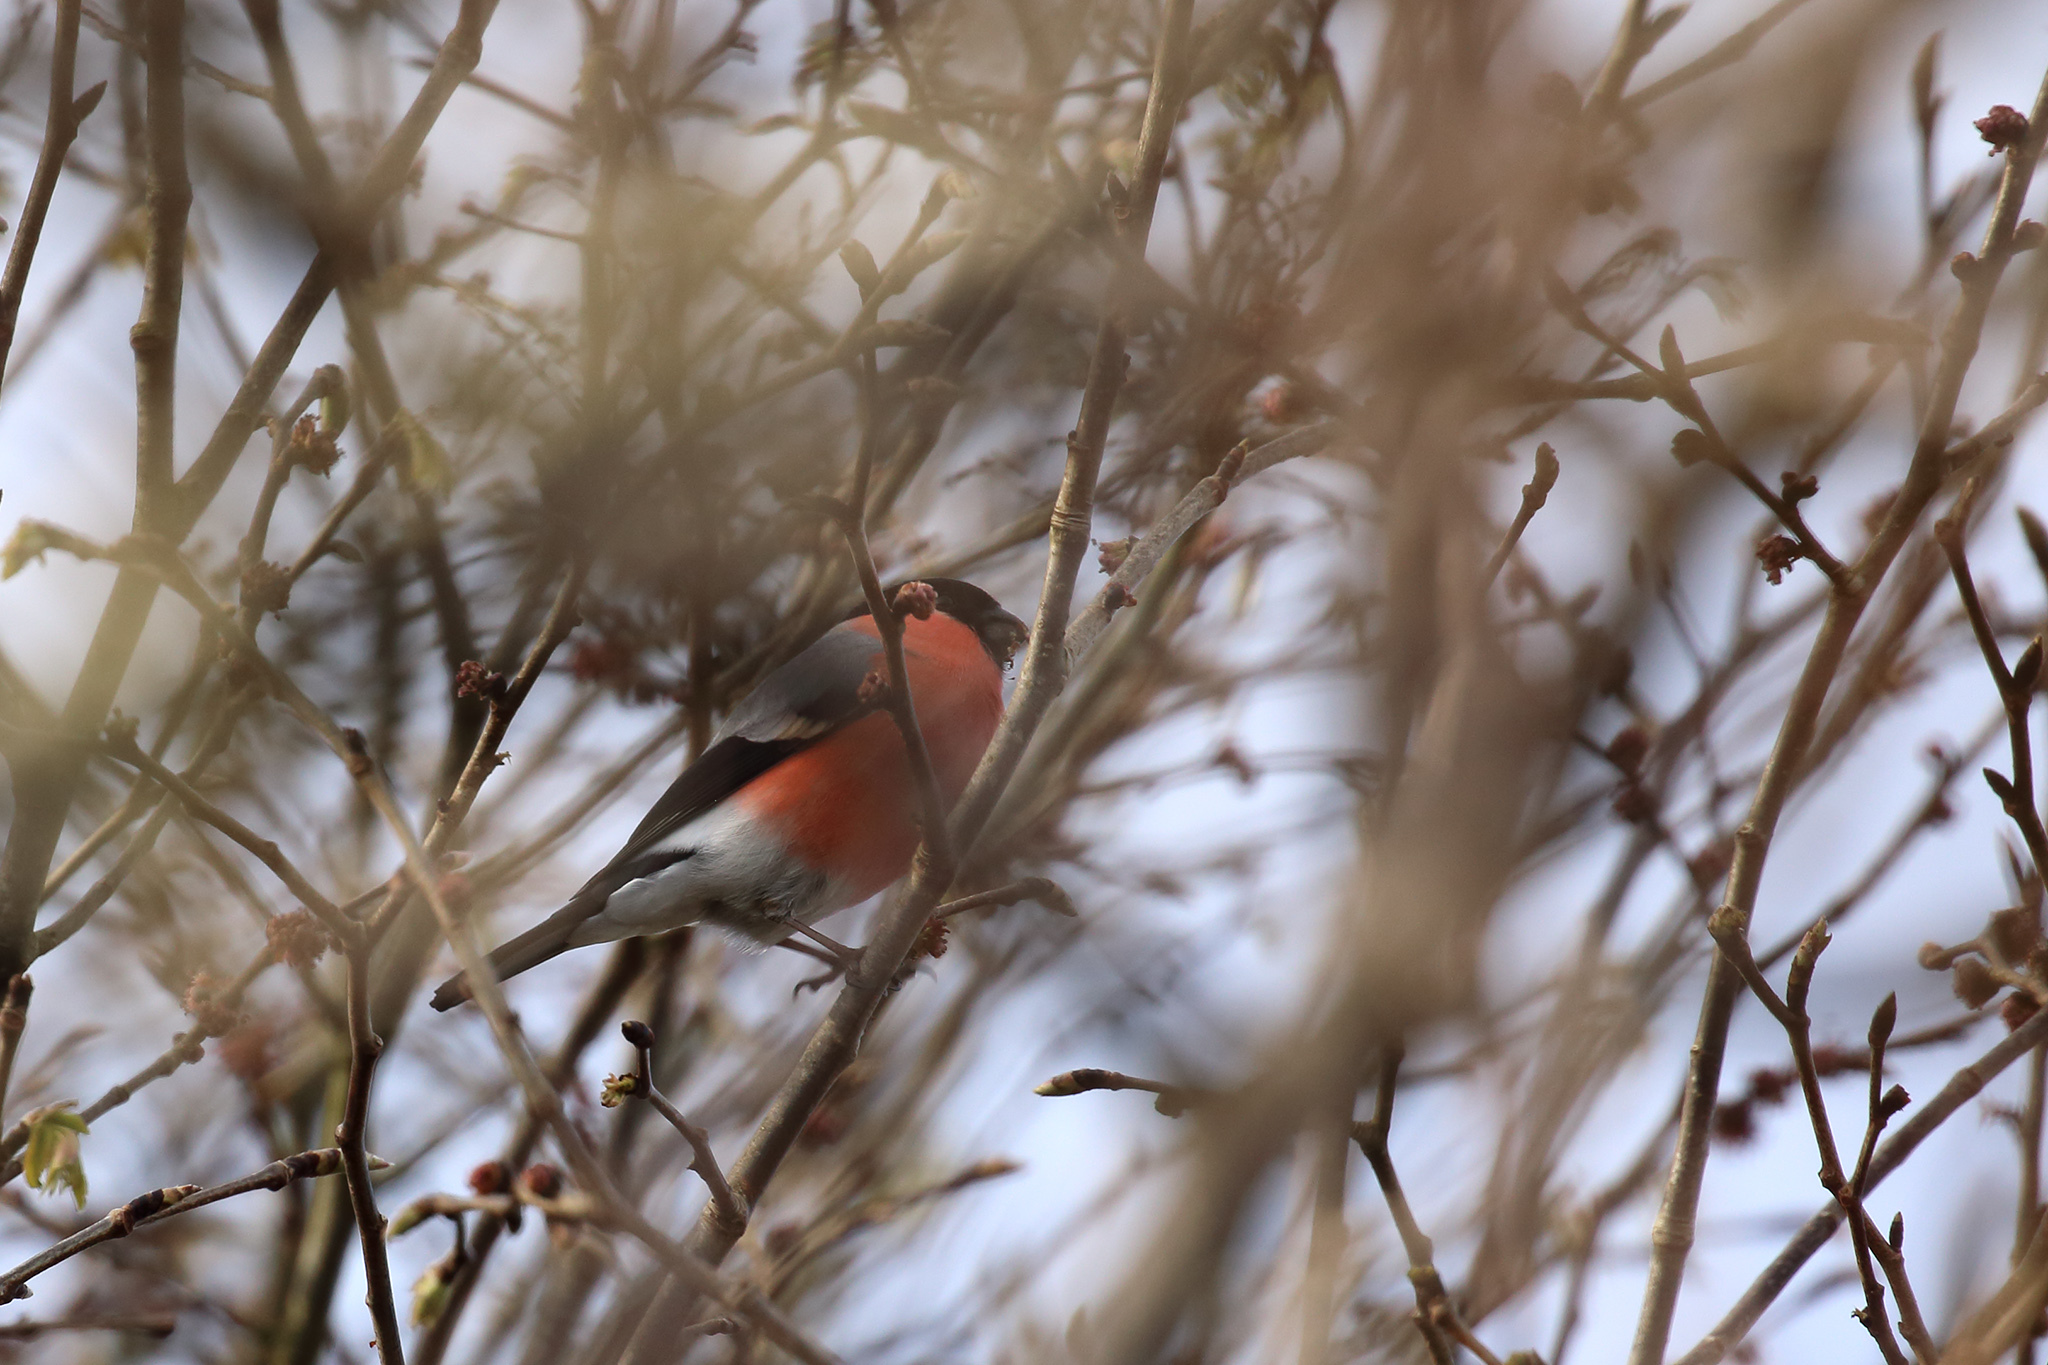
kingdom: Animalia
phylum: Chordata
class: Aves
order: Passeriformes
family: Fringillidae
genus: Pyrrhula
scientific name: Pyrrhula pyrrhula
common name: Eurasian bullfinch
